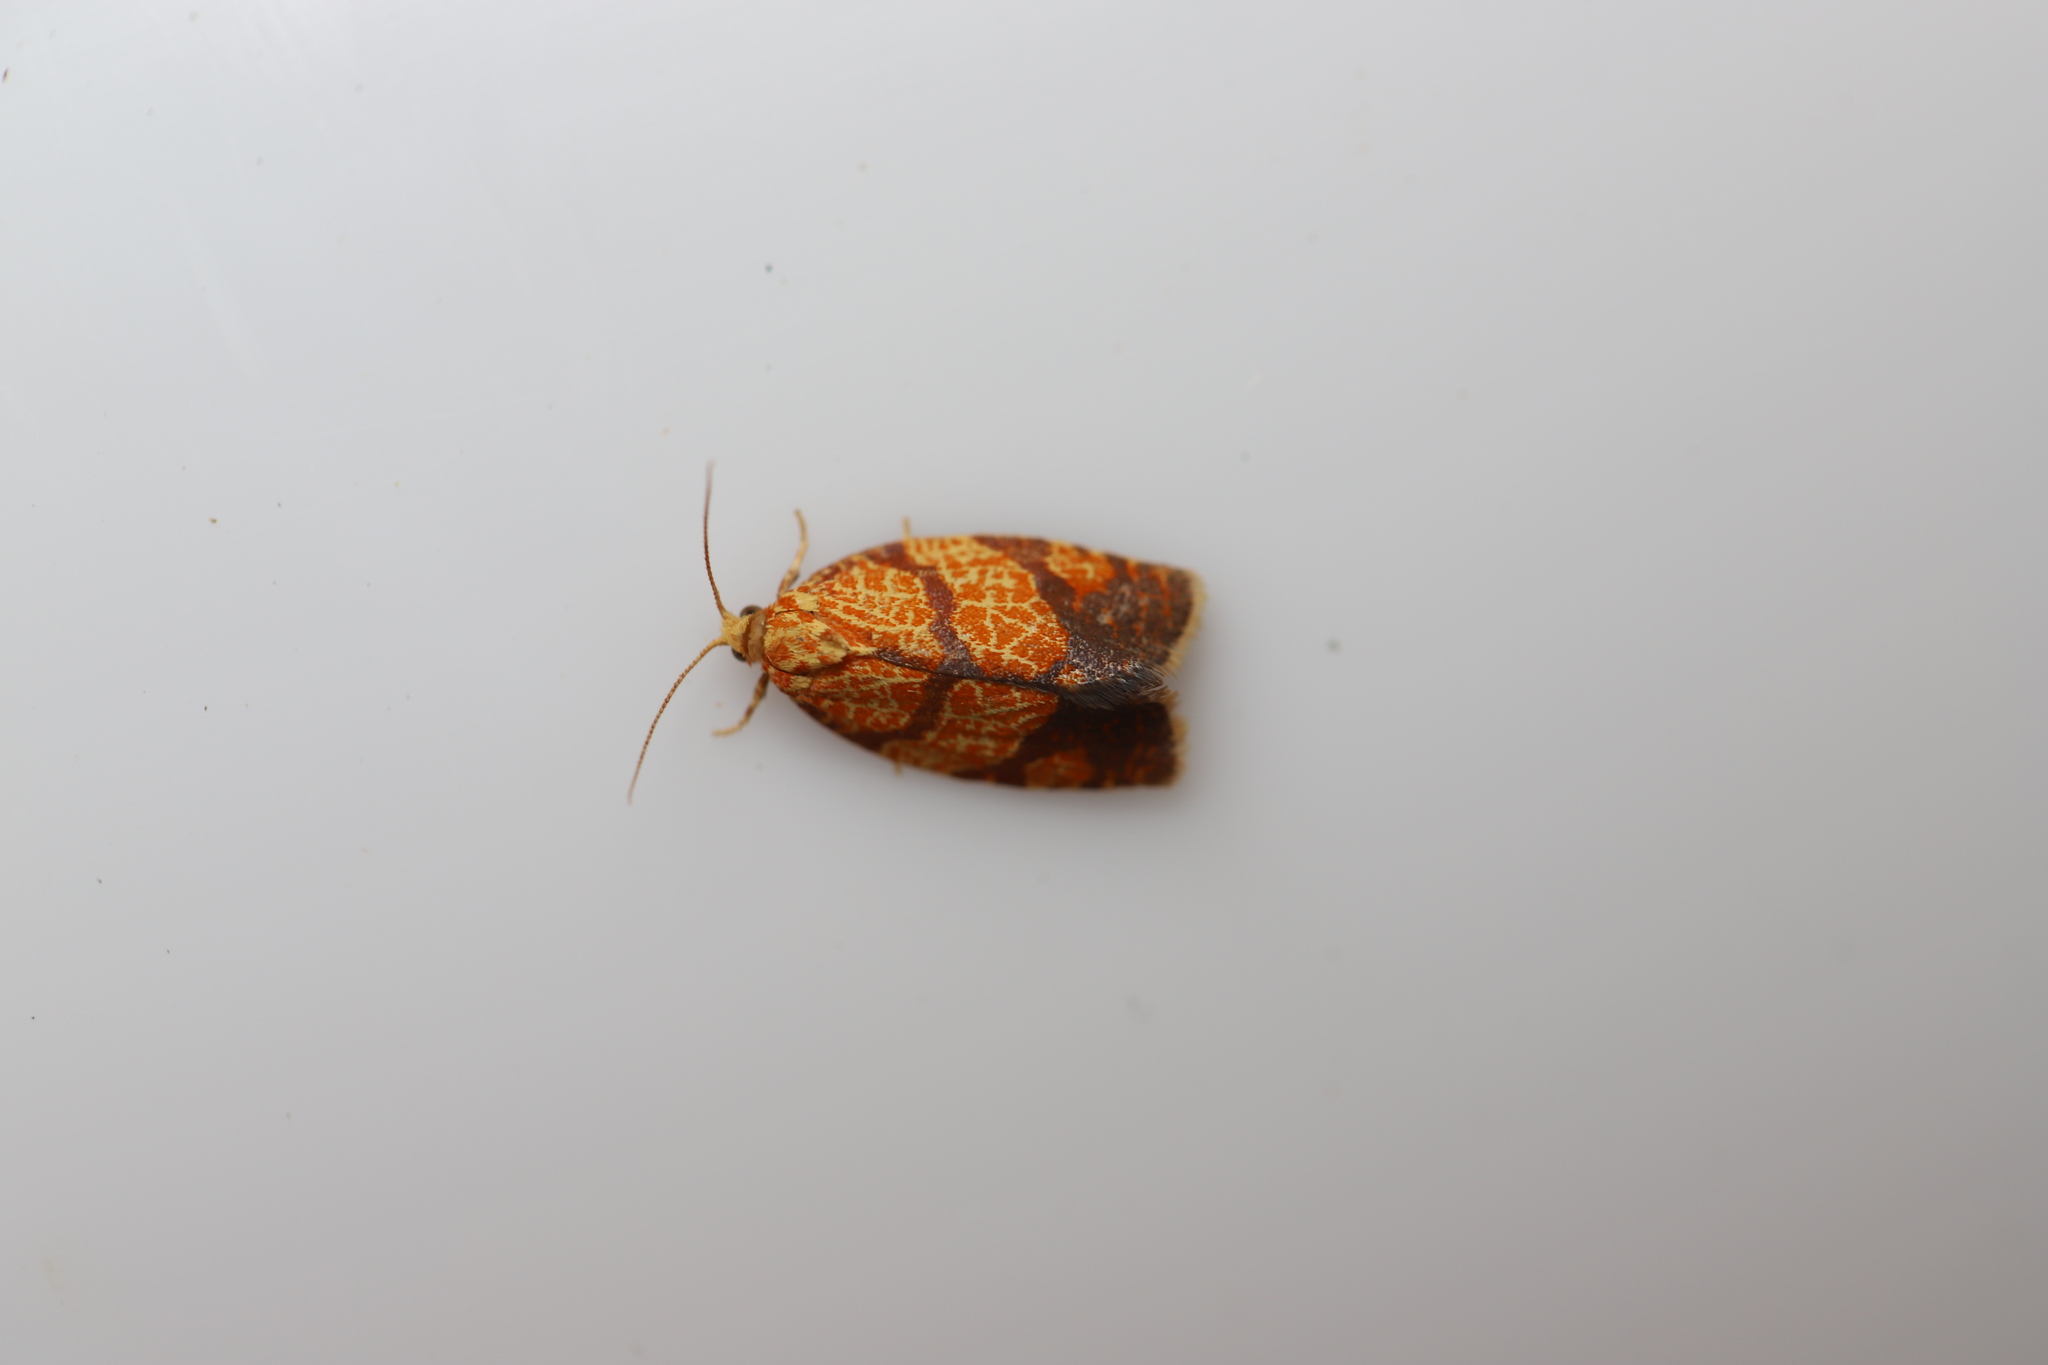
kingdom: Animalia
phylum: Arthropoda
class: Insecta
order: Lepidoptera
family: Tortricidae
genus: Argyrotaenia
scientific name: Argyrotaenia quadrifasciana
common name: Four-lined leafroller moth
